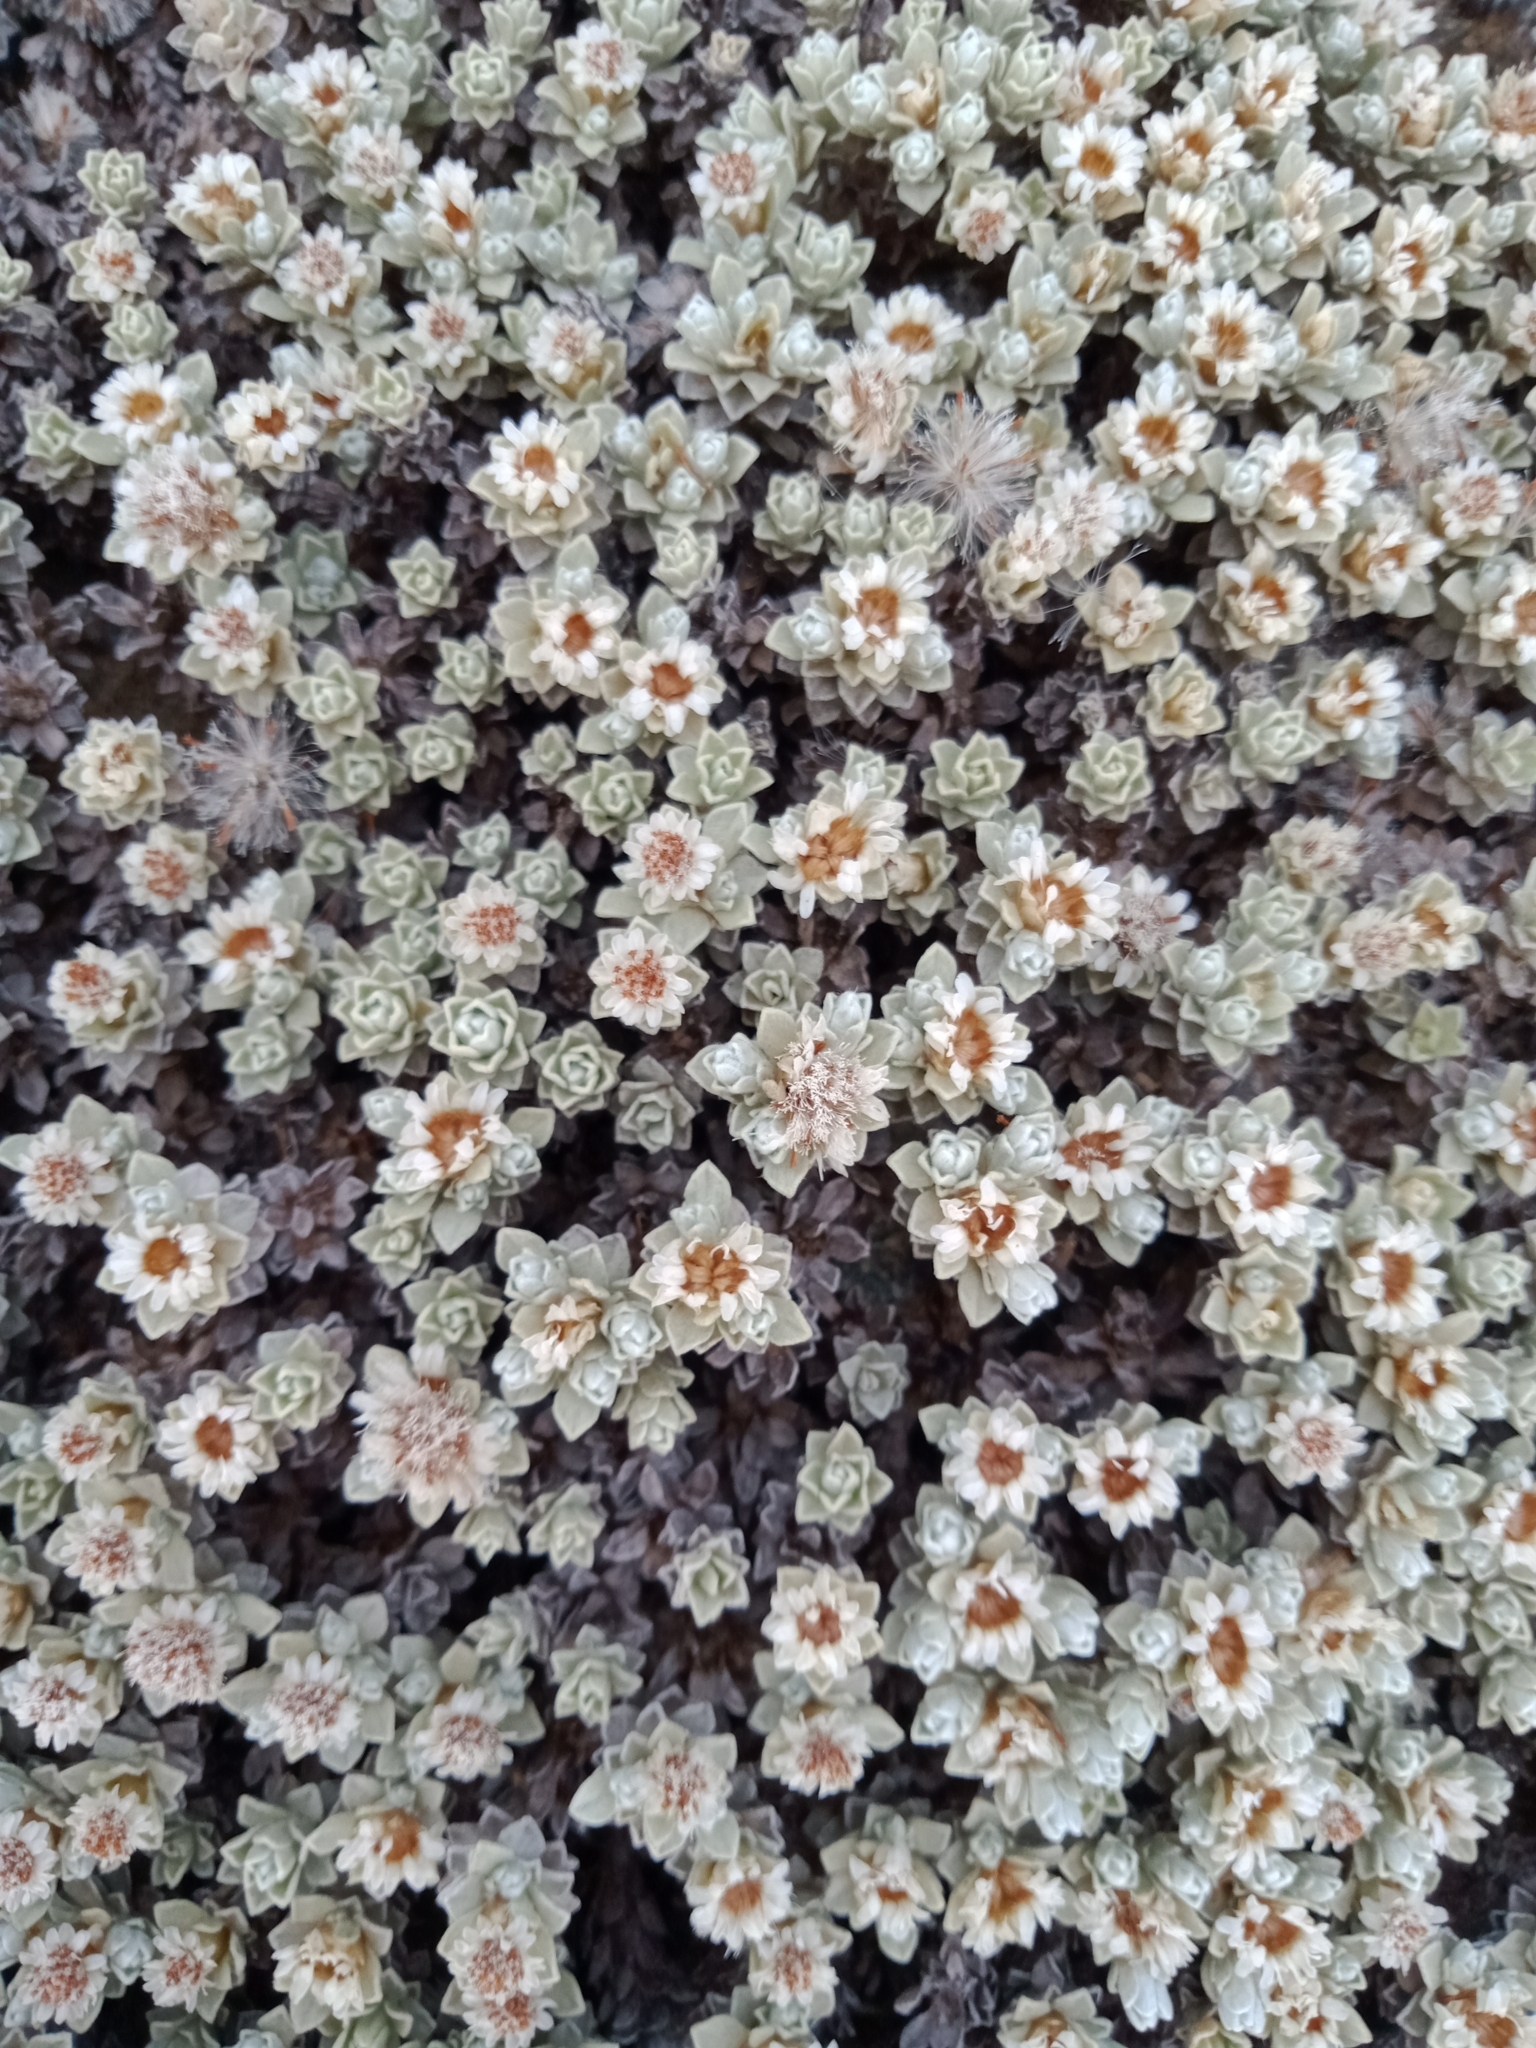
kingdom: Plantae
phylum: Tracheophyta
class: Magnoliopsida
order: Asterales
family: Asteraceae
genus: Ewartia
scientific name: Ewartia nubigena
